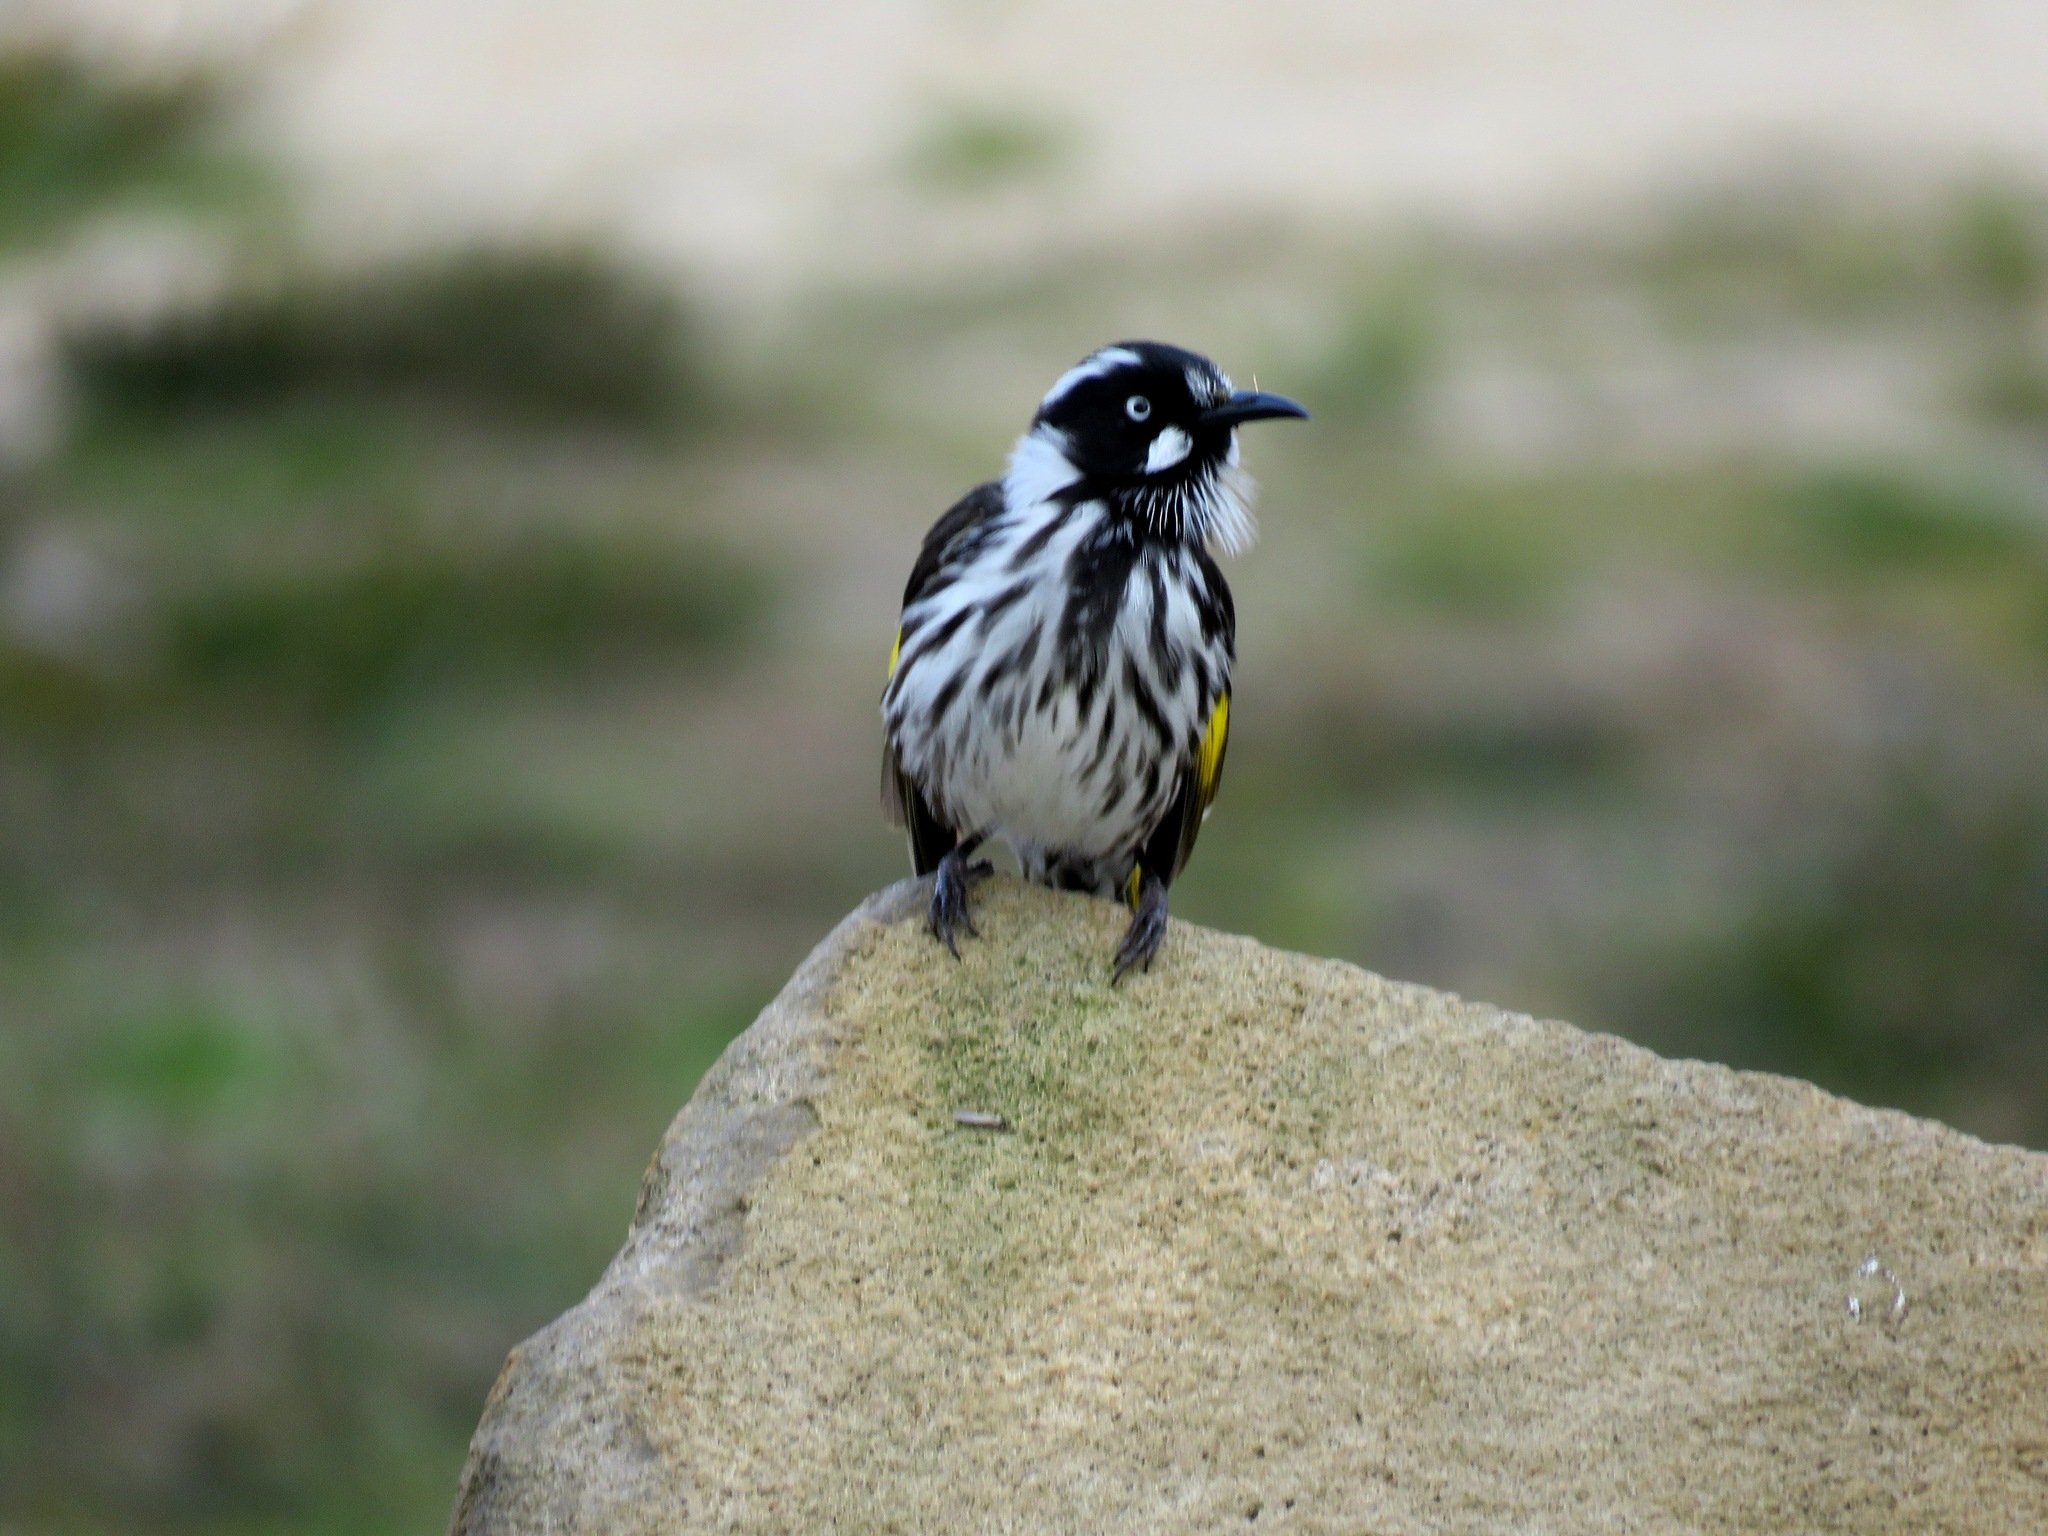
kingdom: Animalia
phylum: Chordata
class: Aves
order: Passeriformes
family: Meliphagidae
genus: Phylidonyris
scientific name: Phylidonyris novaehollandiae
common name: New holland honeyeater
